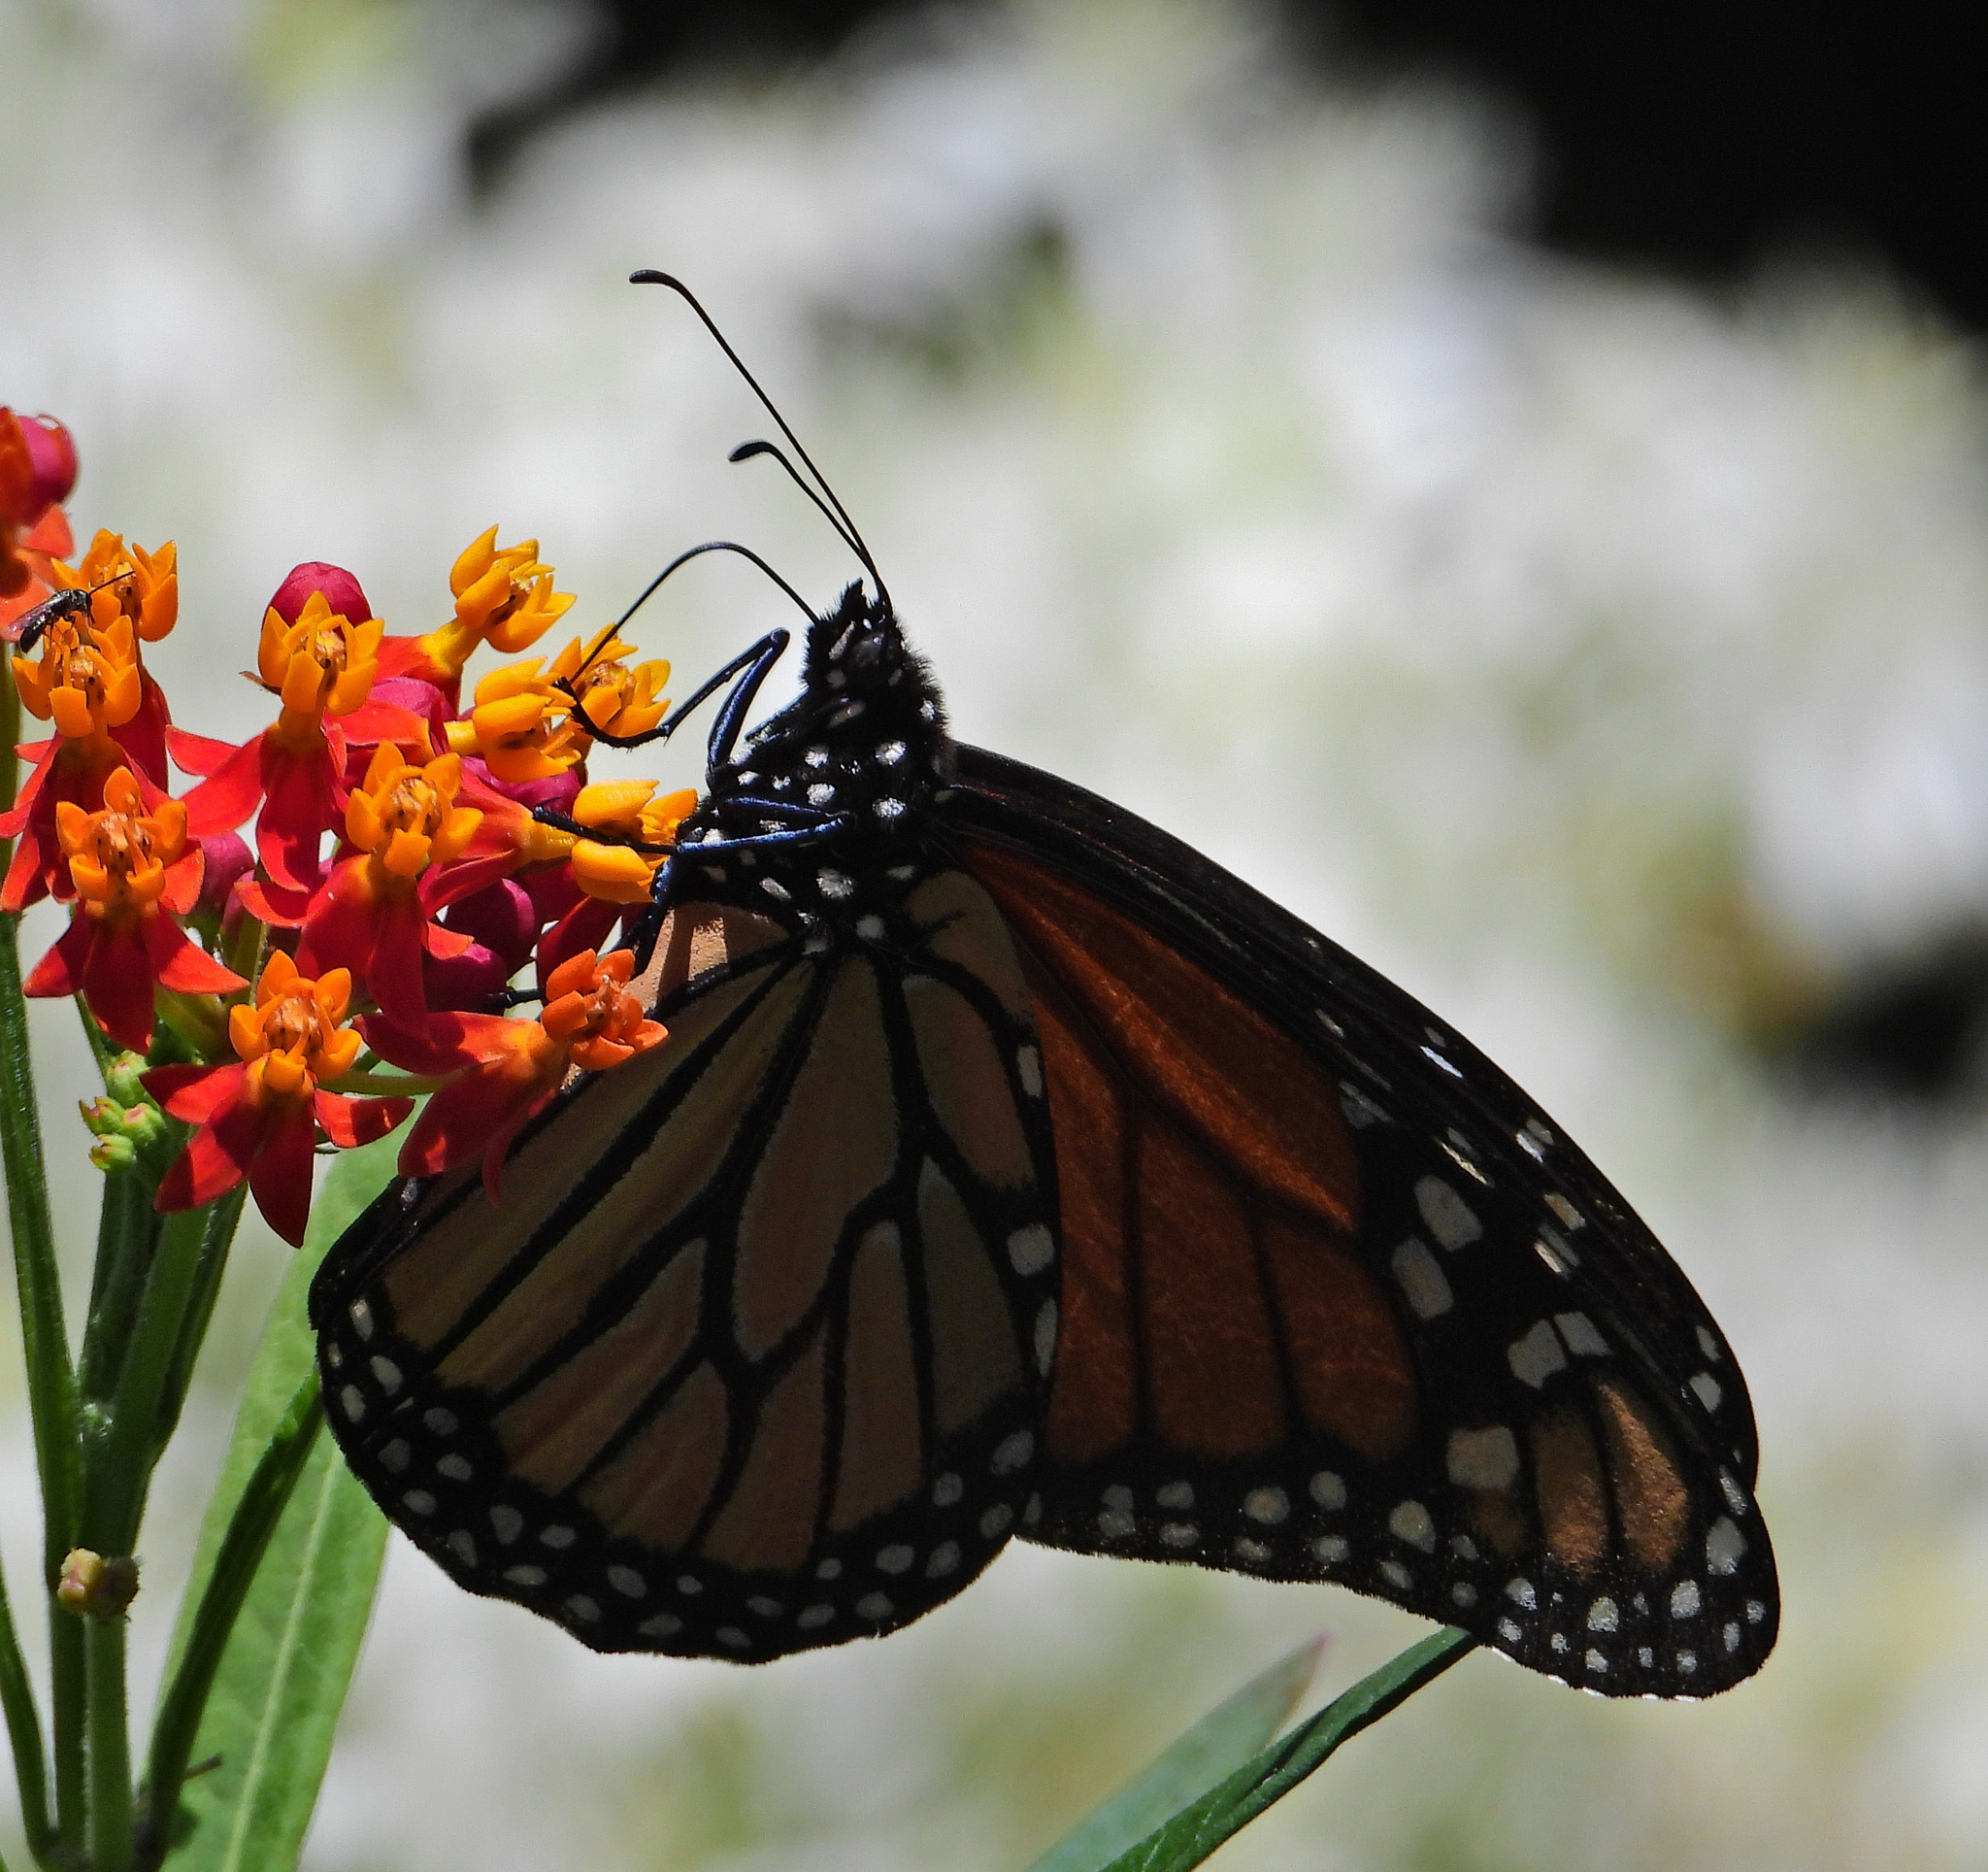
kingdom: Animalia
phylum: Arthropoda
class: Insecta
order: Lepidoptera
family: Nymphalidae
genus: Danaus
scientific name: Danaus plexippus
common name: Monarch
